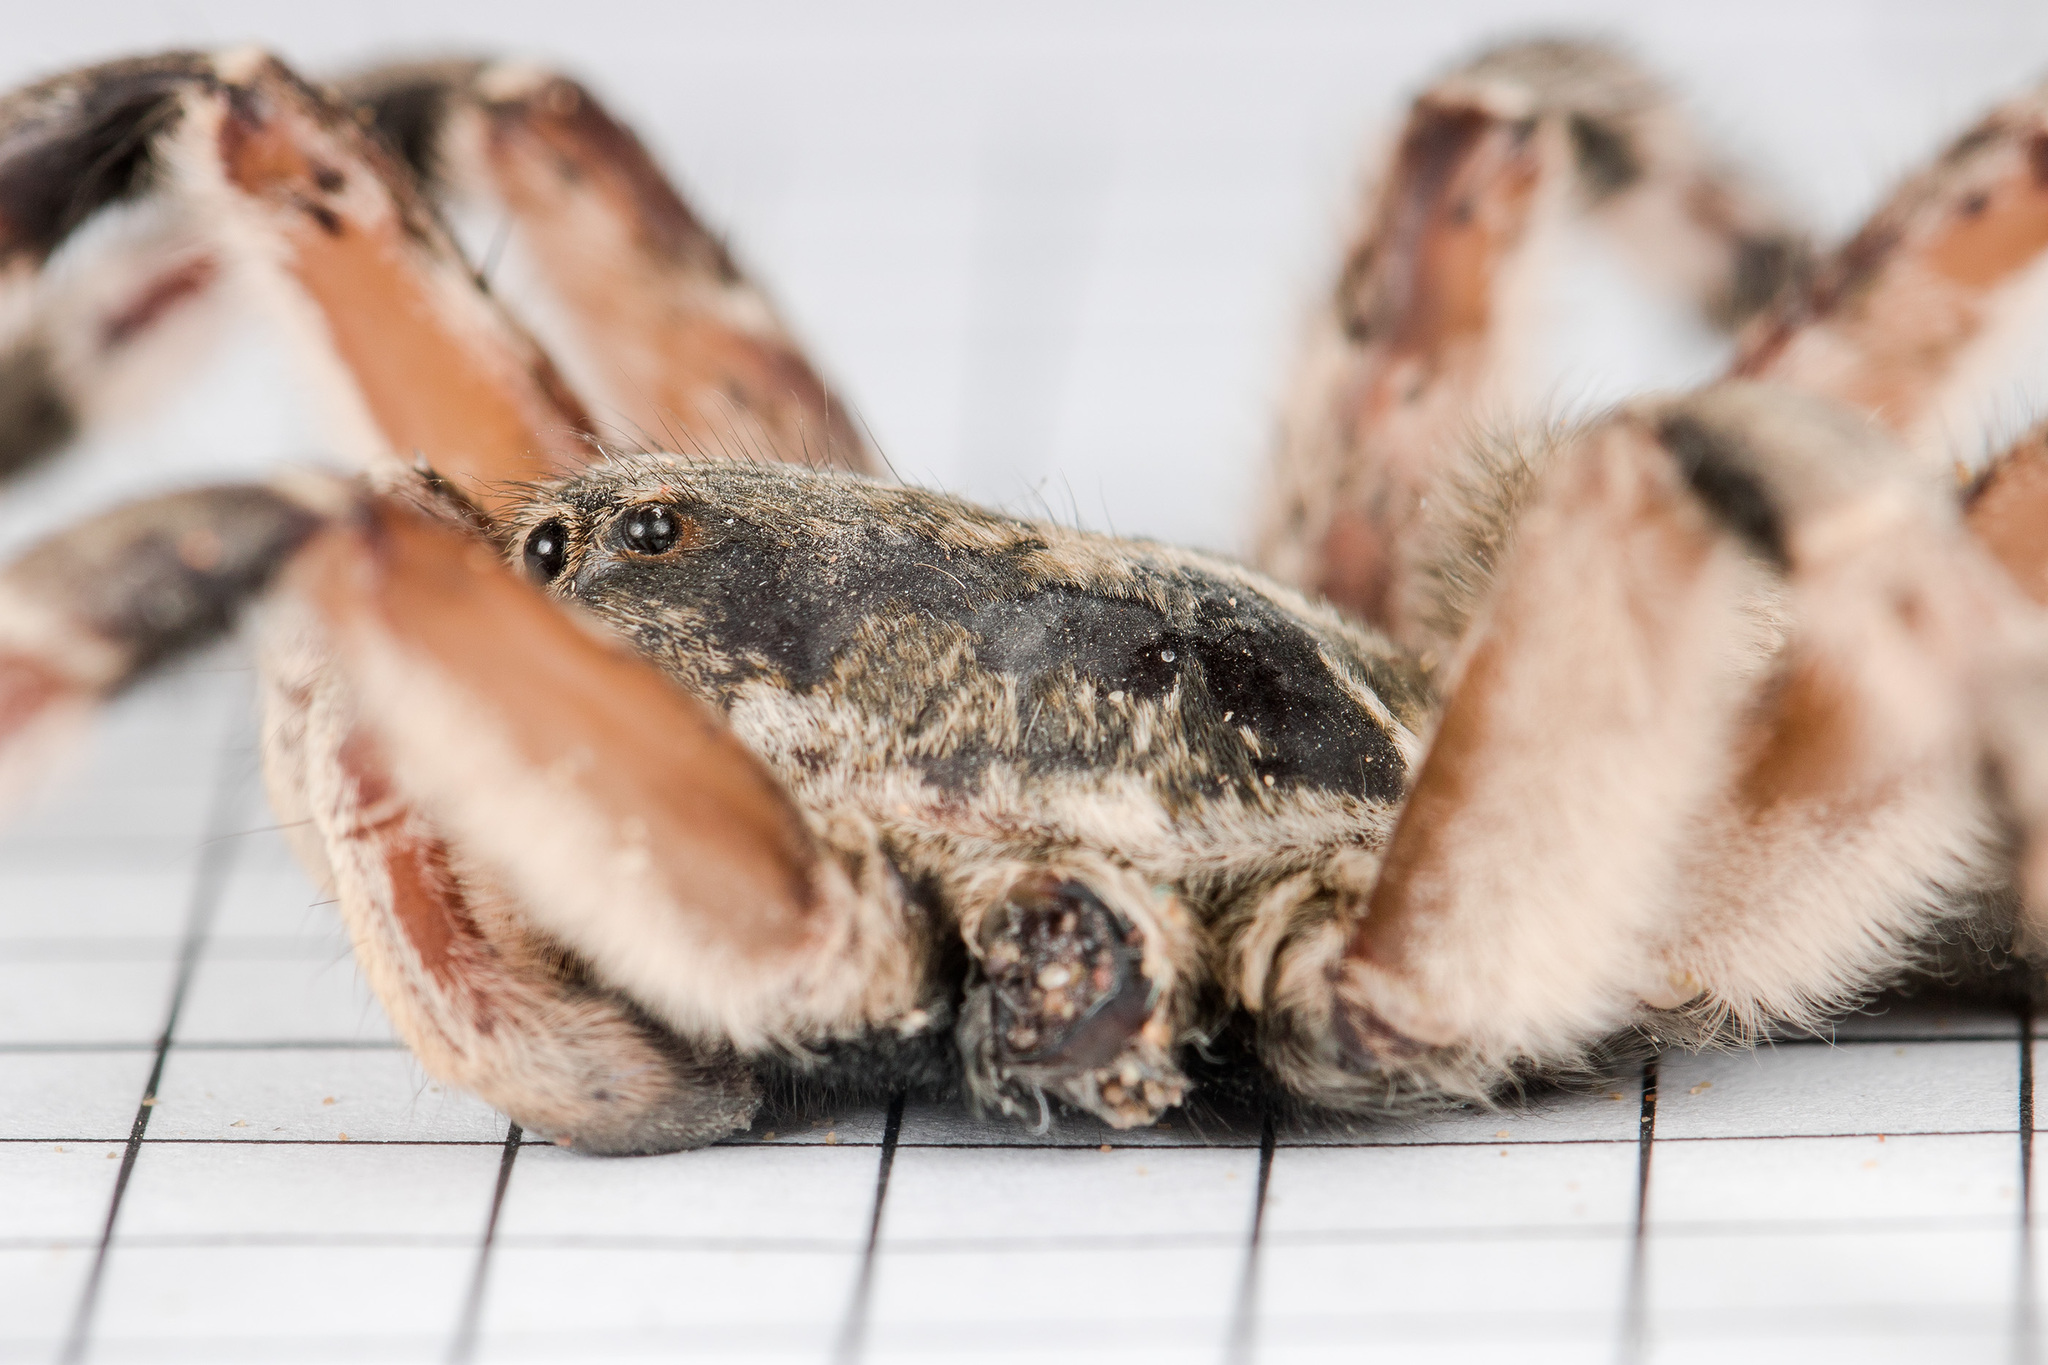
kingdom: Animalia
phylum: Arthropoda
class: Arachnida
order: Araneae
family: Lycosidae
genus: Lycosa
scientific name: Lycosa singoriensis
